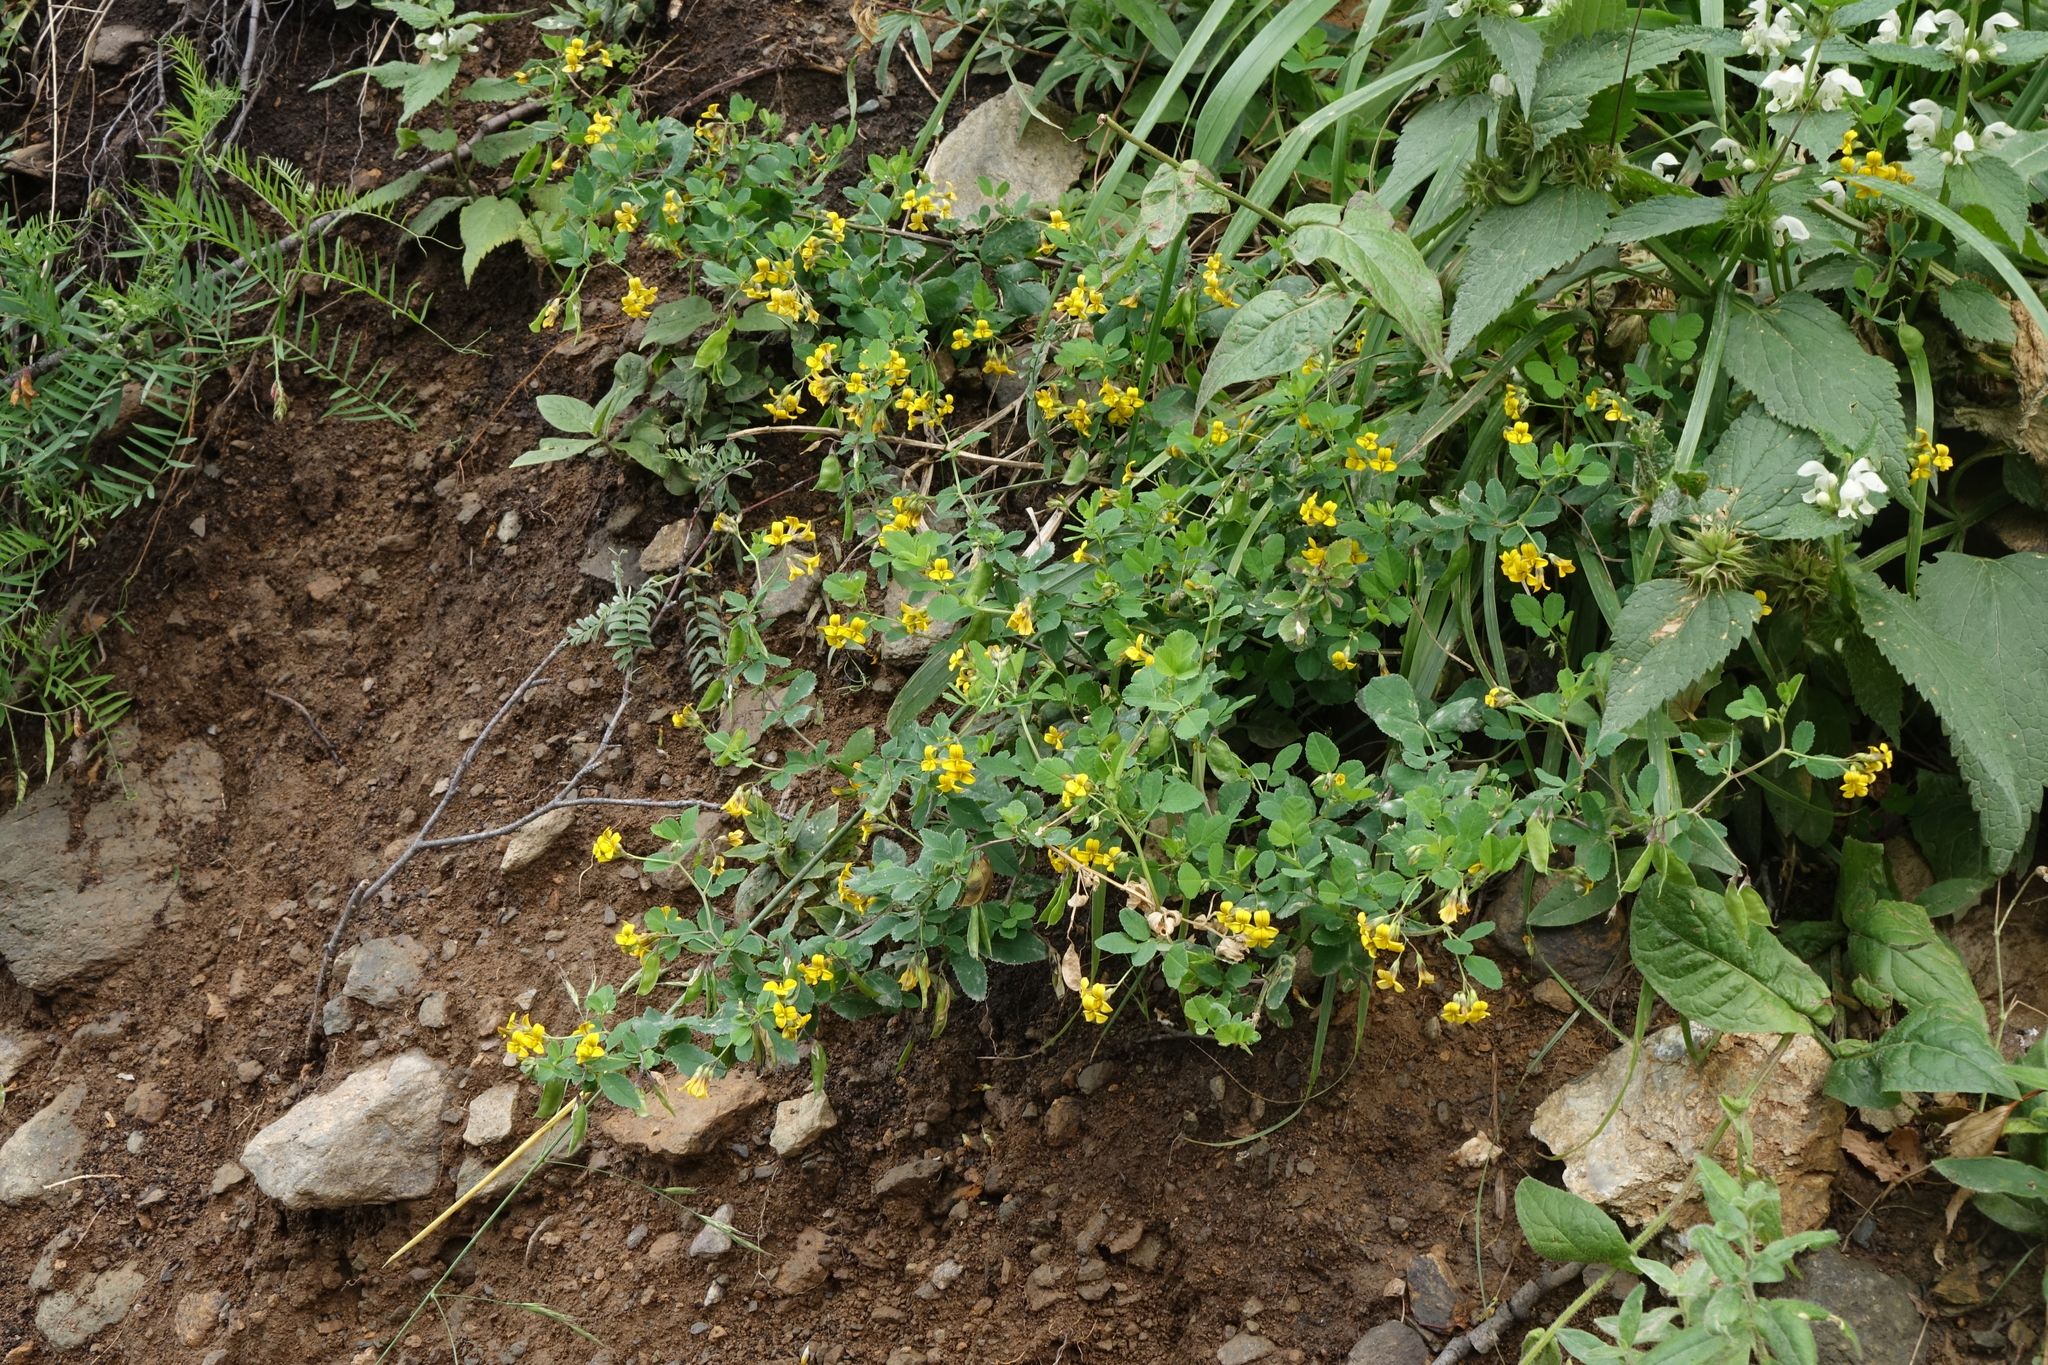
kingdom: Plantae
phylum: Tracheophyta
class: Magnoliopsida
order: Fabales
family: Fabaceae
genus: Medicago
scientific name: Medicago platycarpos
